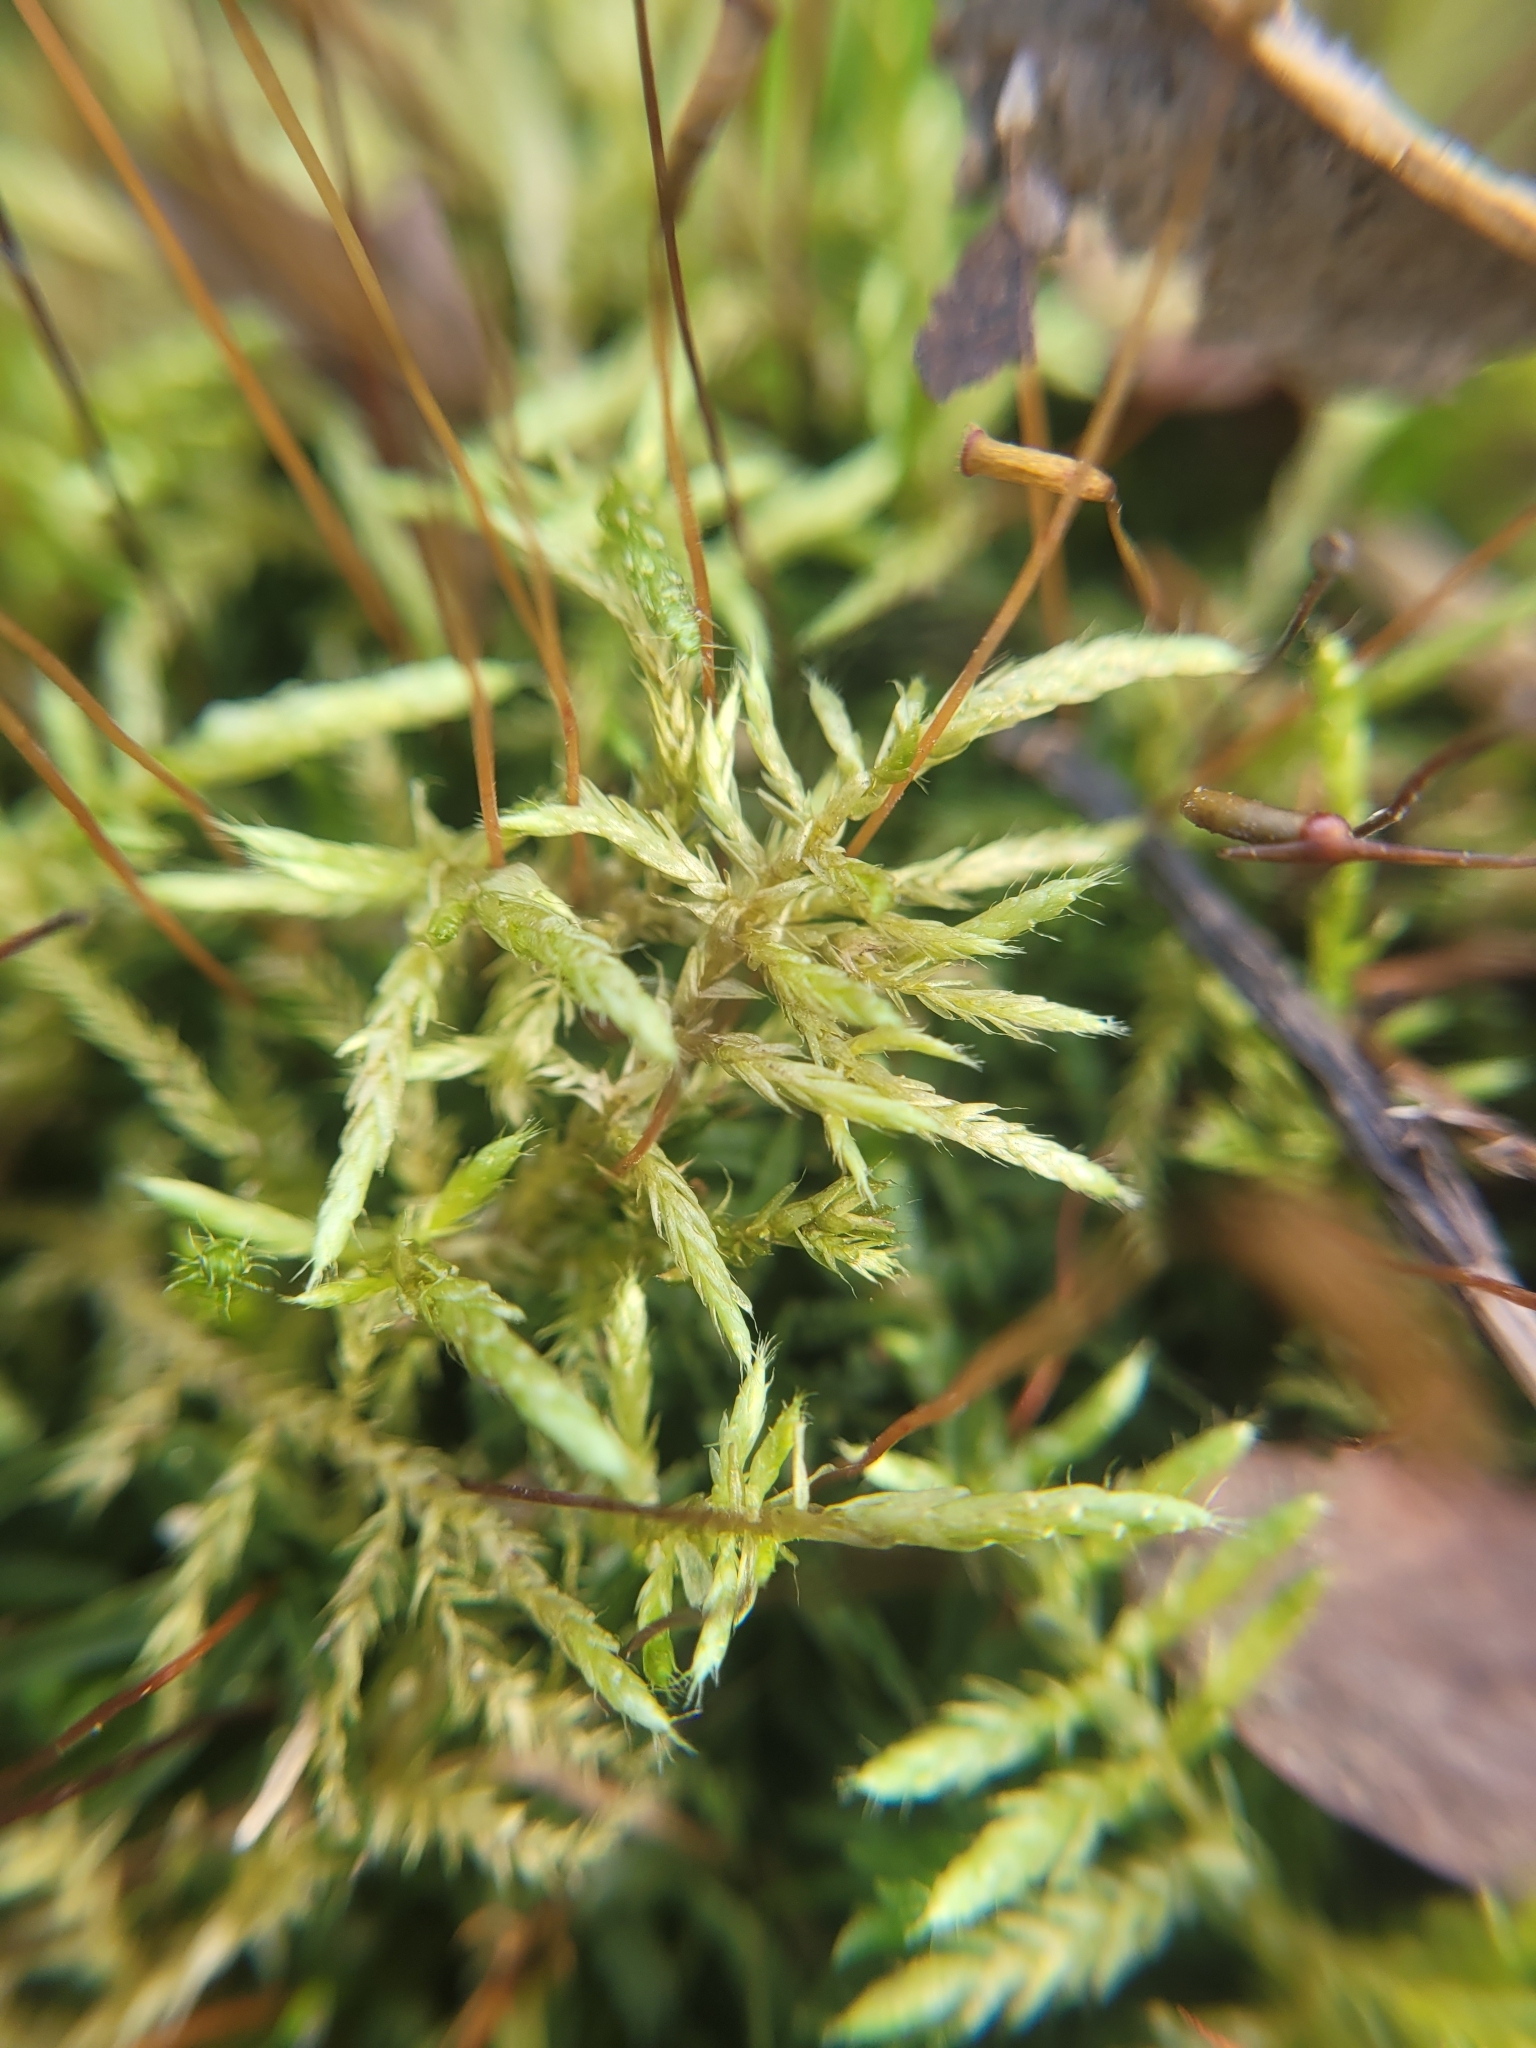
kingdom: Plantae
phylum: Bryophyta
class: Bryopsida
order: Hypnales
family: Hylocomiaceae
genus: Pleurozium
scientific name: Pleurozium schreberi
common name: Red-stemmed feather moss
